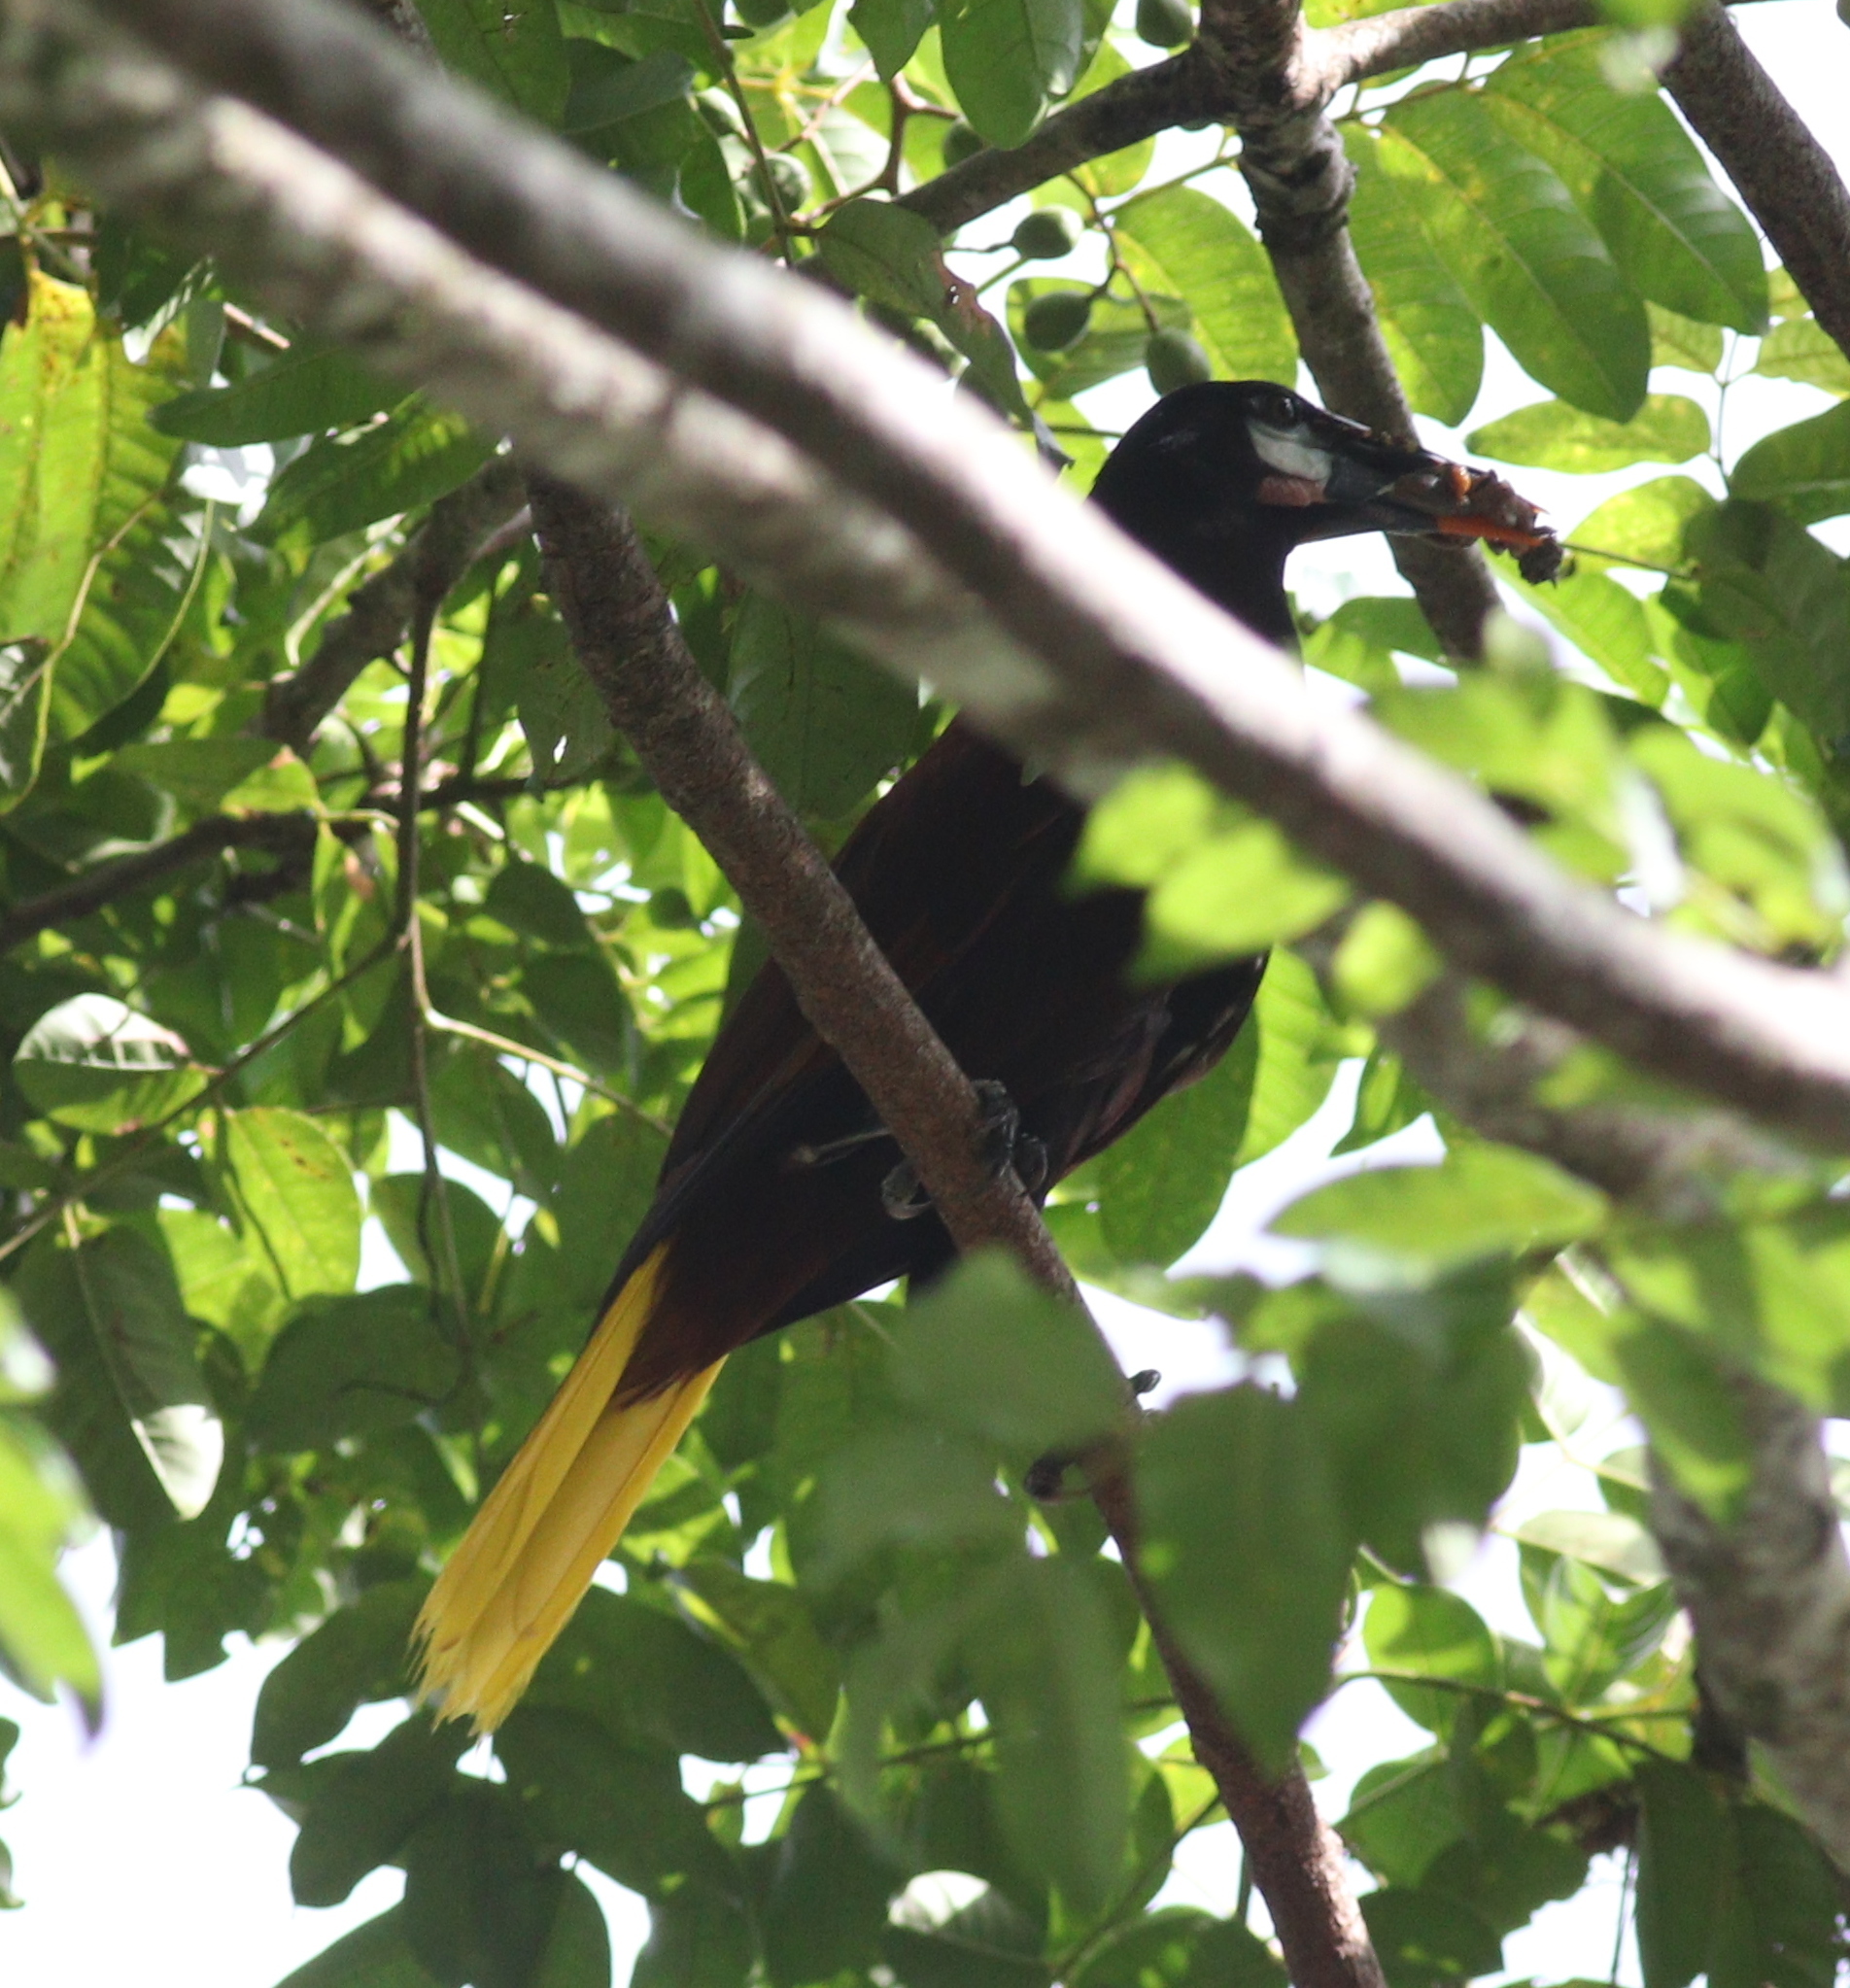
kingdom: Animalia
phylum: Chordata
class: Aves
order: Passeriformes
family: Icteridae
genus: Psarocolius
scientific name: Psarocolius montezuma
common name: Montezuma oropendola
